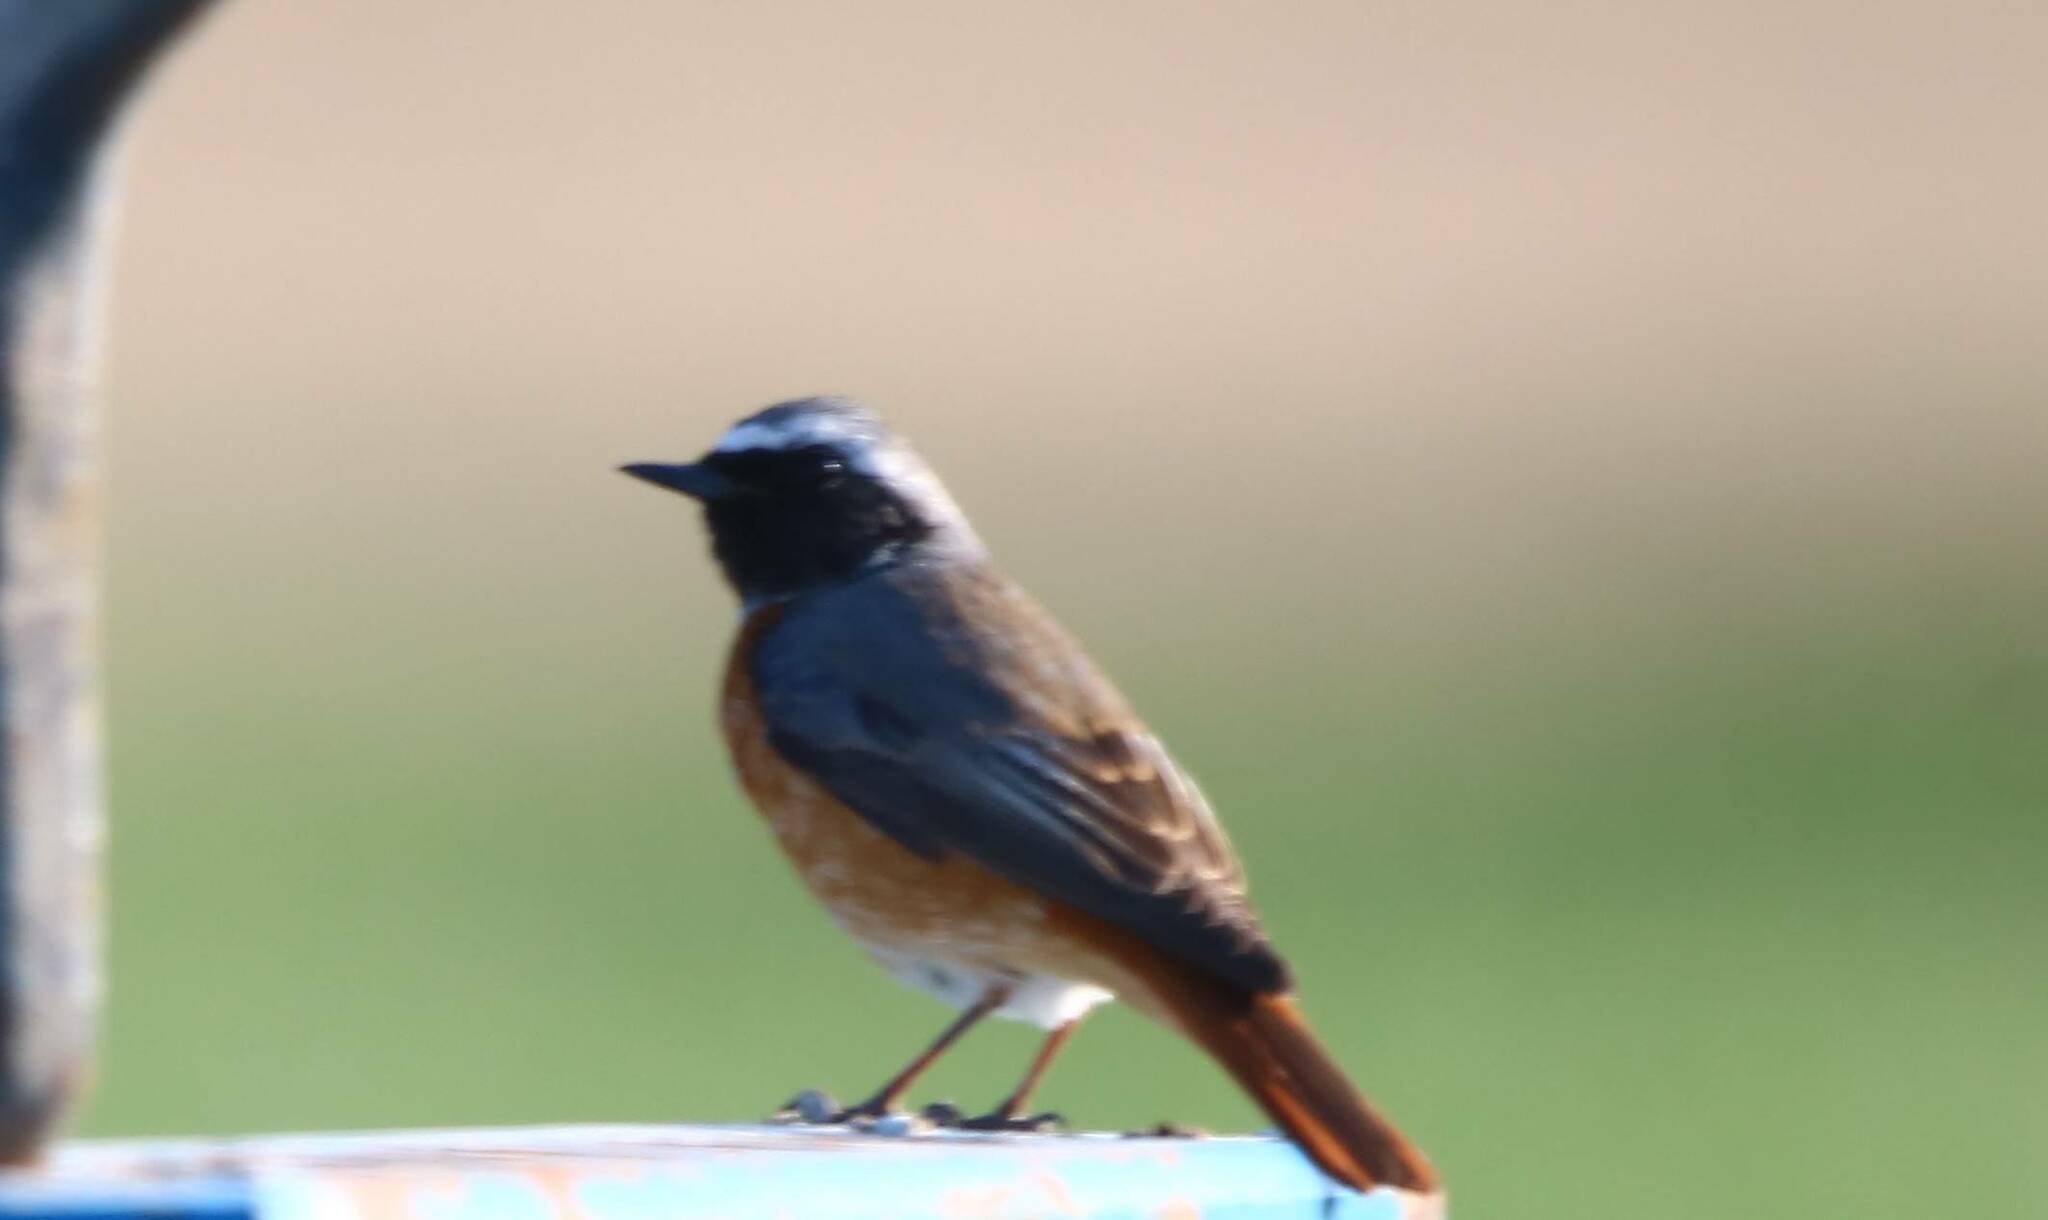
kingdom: Animalia
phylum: Chordata
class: Aves
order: Passeriformes
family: Muscicapidae
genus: Phoenicurus
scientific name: Phoenicurus phoenicurus
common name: Common redstart
